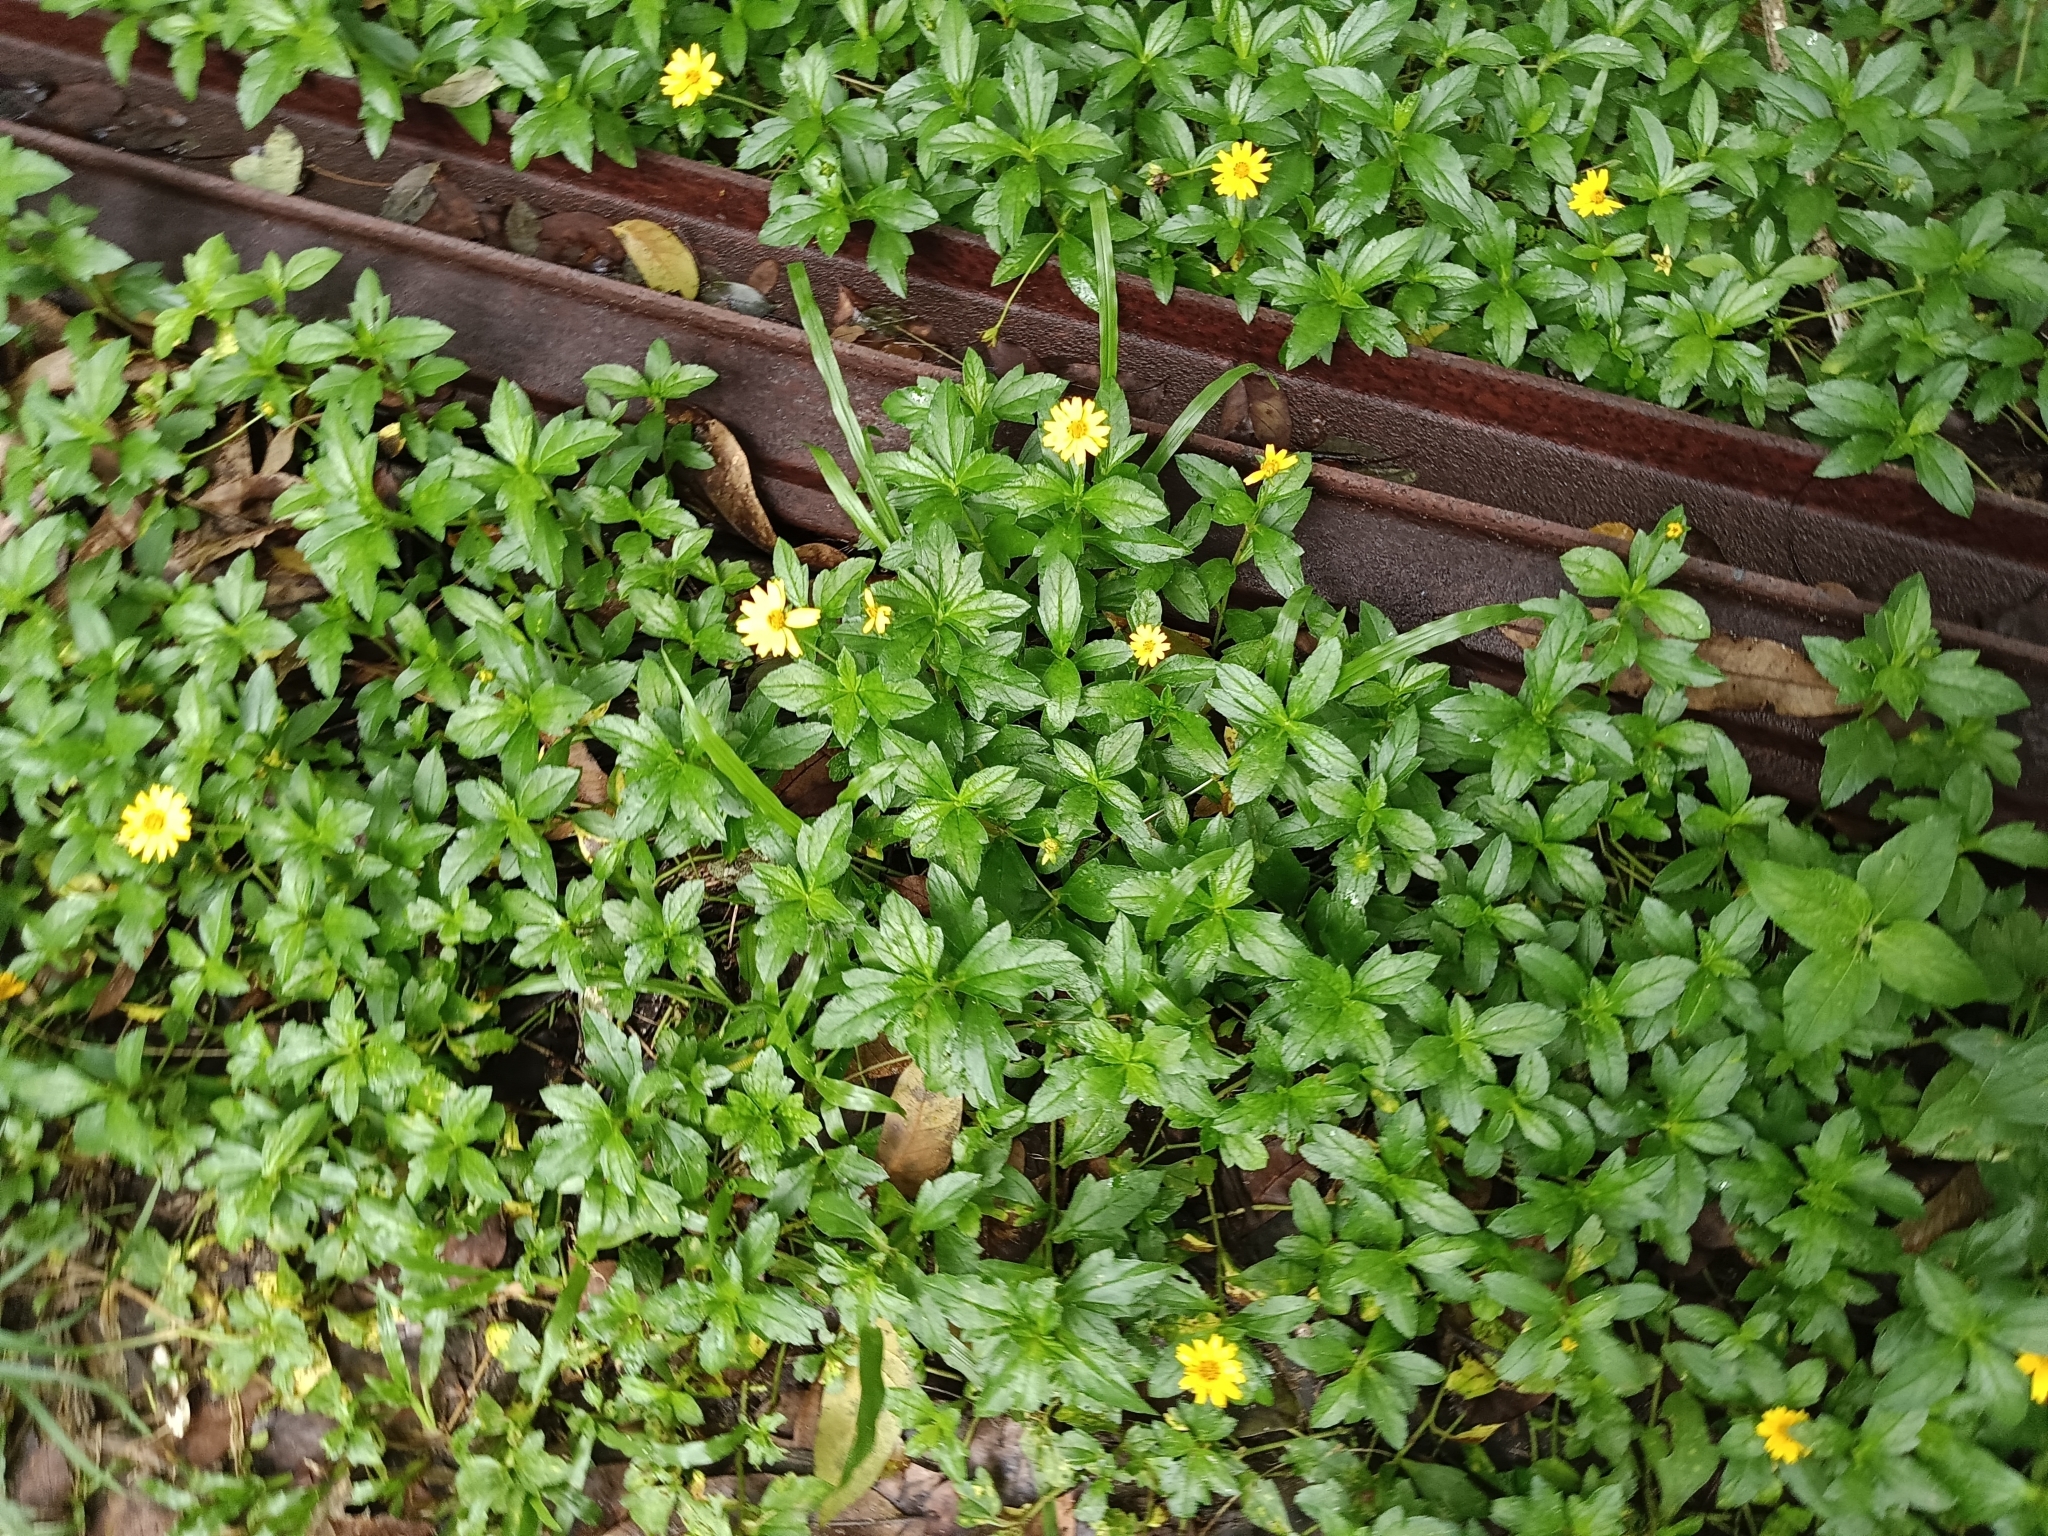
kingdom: Plantae
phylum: Tracheophyta
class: Magnoliopsida
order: Asterales
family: Asteraceae
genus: Sphagneticola
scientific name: Sphagneticola trilobata
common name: Bay biscayne creeping-oxeye
